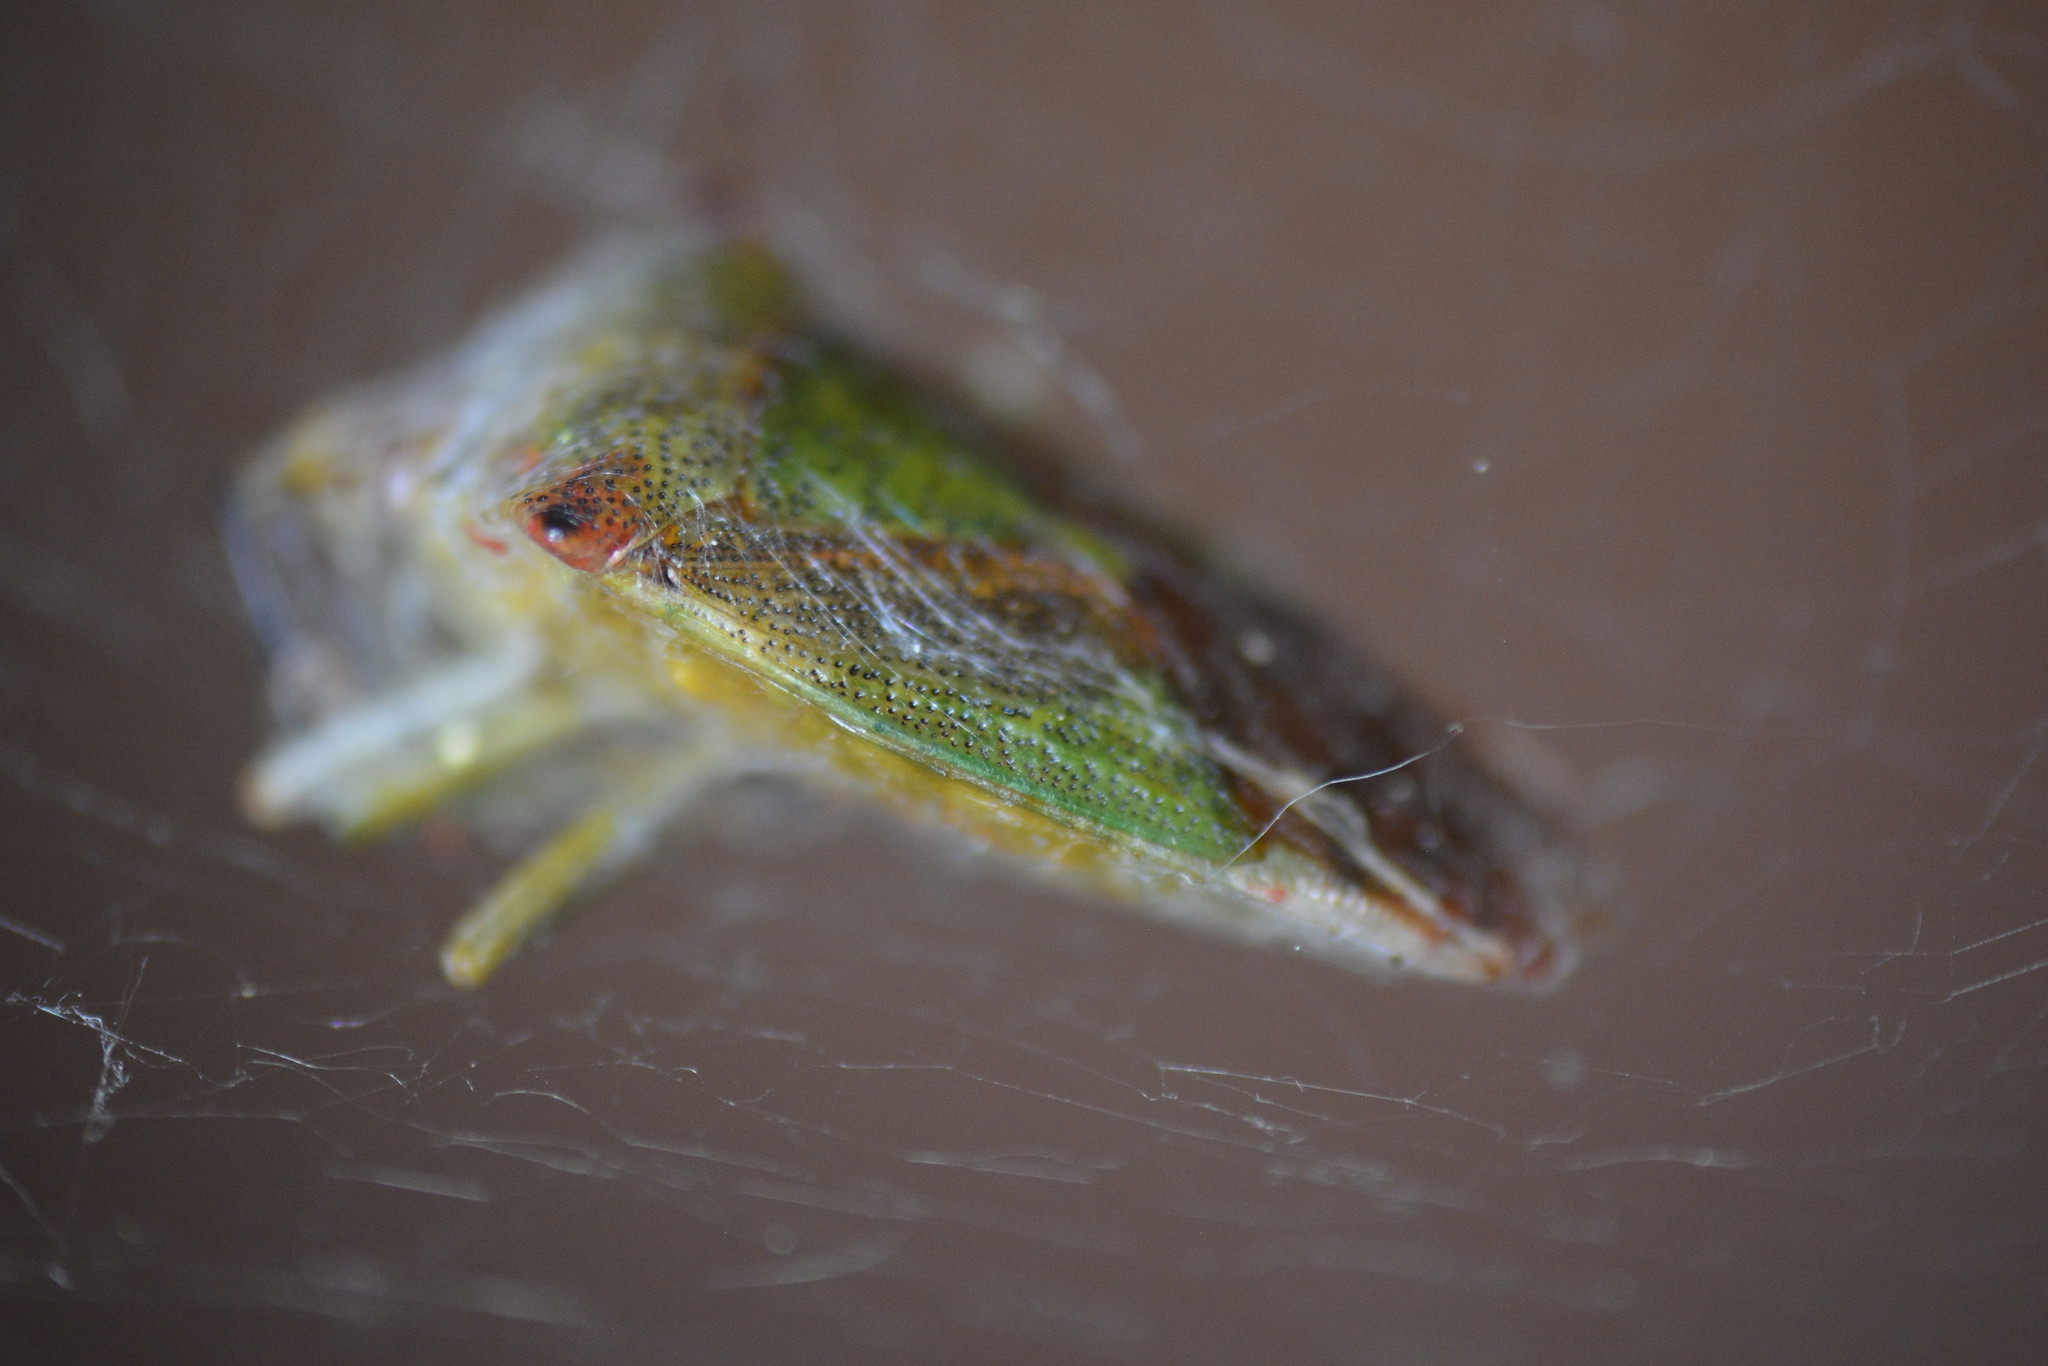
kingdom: Animalia
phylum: Arthropoda
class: Insecta
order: Hemiptera
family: Acanthosomatidae
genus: Acanthosoma
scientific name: Acanthosoma haemorrhoidale
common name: Hawthorn shieldbug
